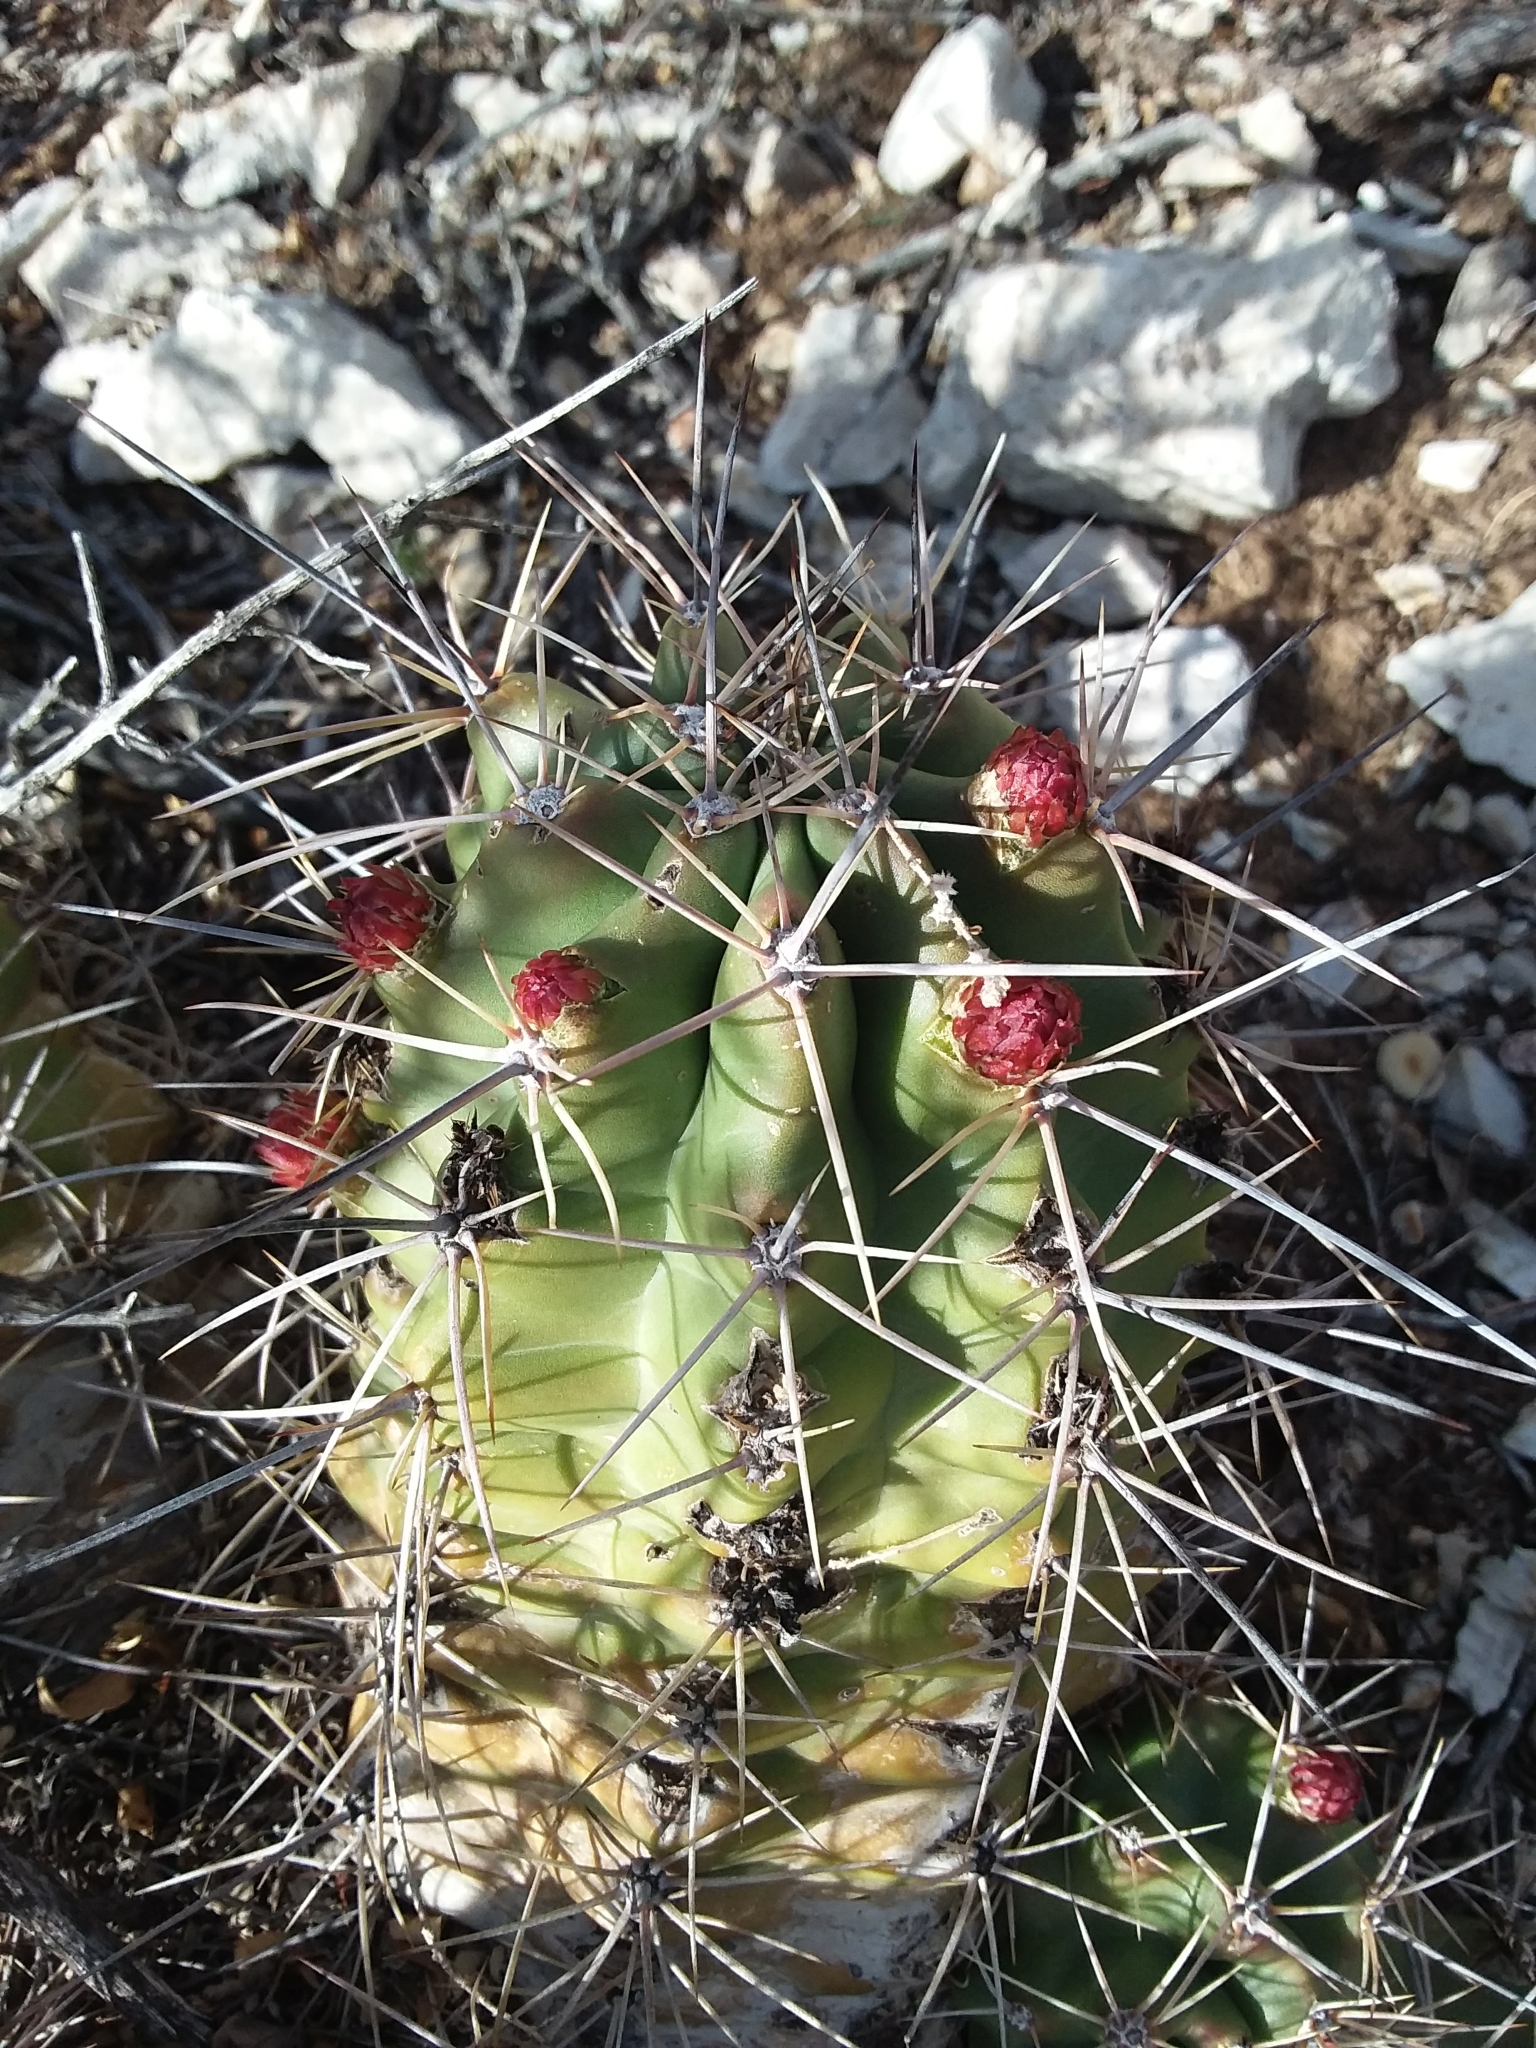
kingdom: Plantae
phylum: Tracheophyta
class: Magnoliopsida
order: Caryophyllales
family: Cactaceae
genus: Echinocereus
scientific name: Echinocereus coccineus
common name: Scarlet hedgehog cactus
